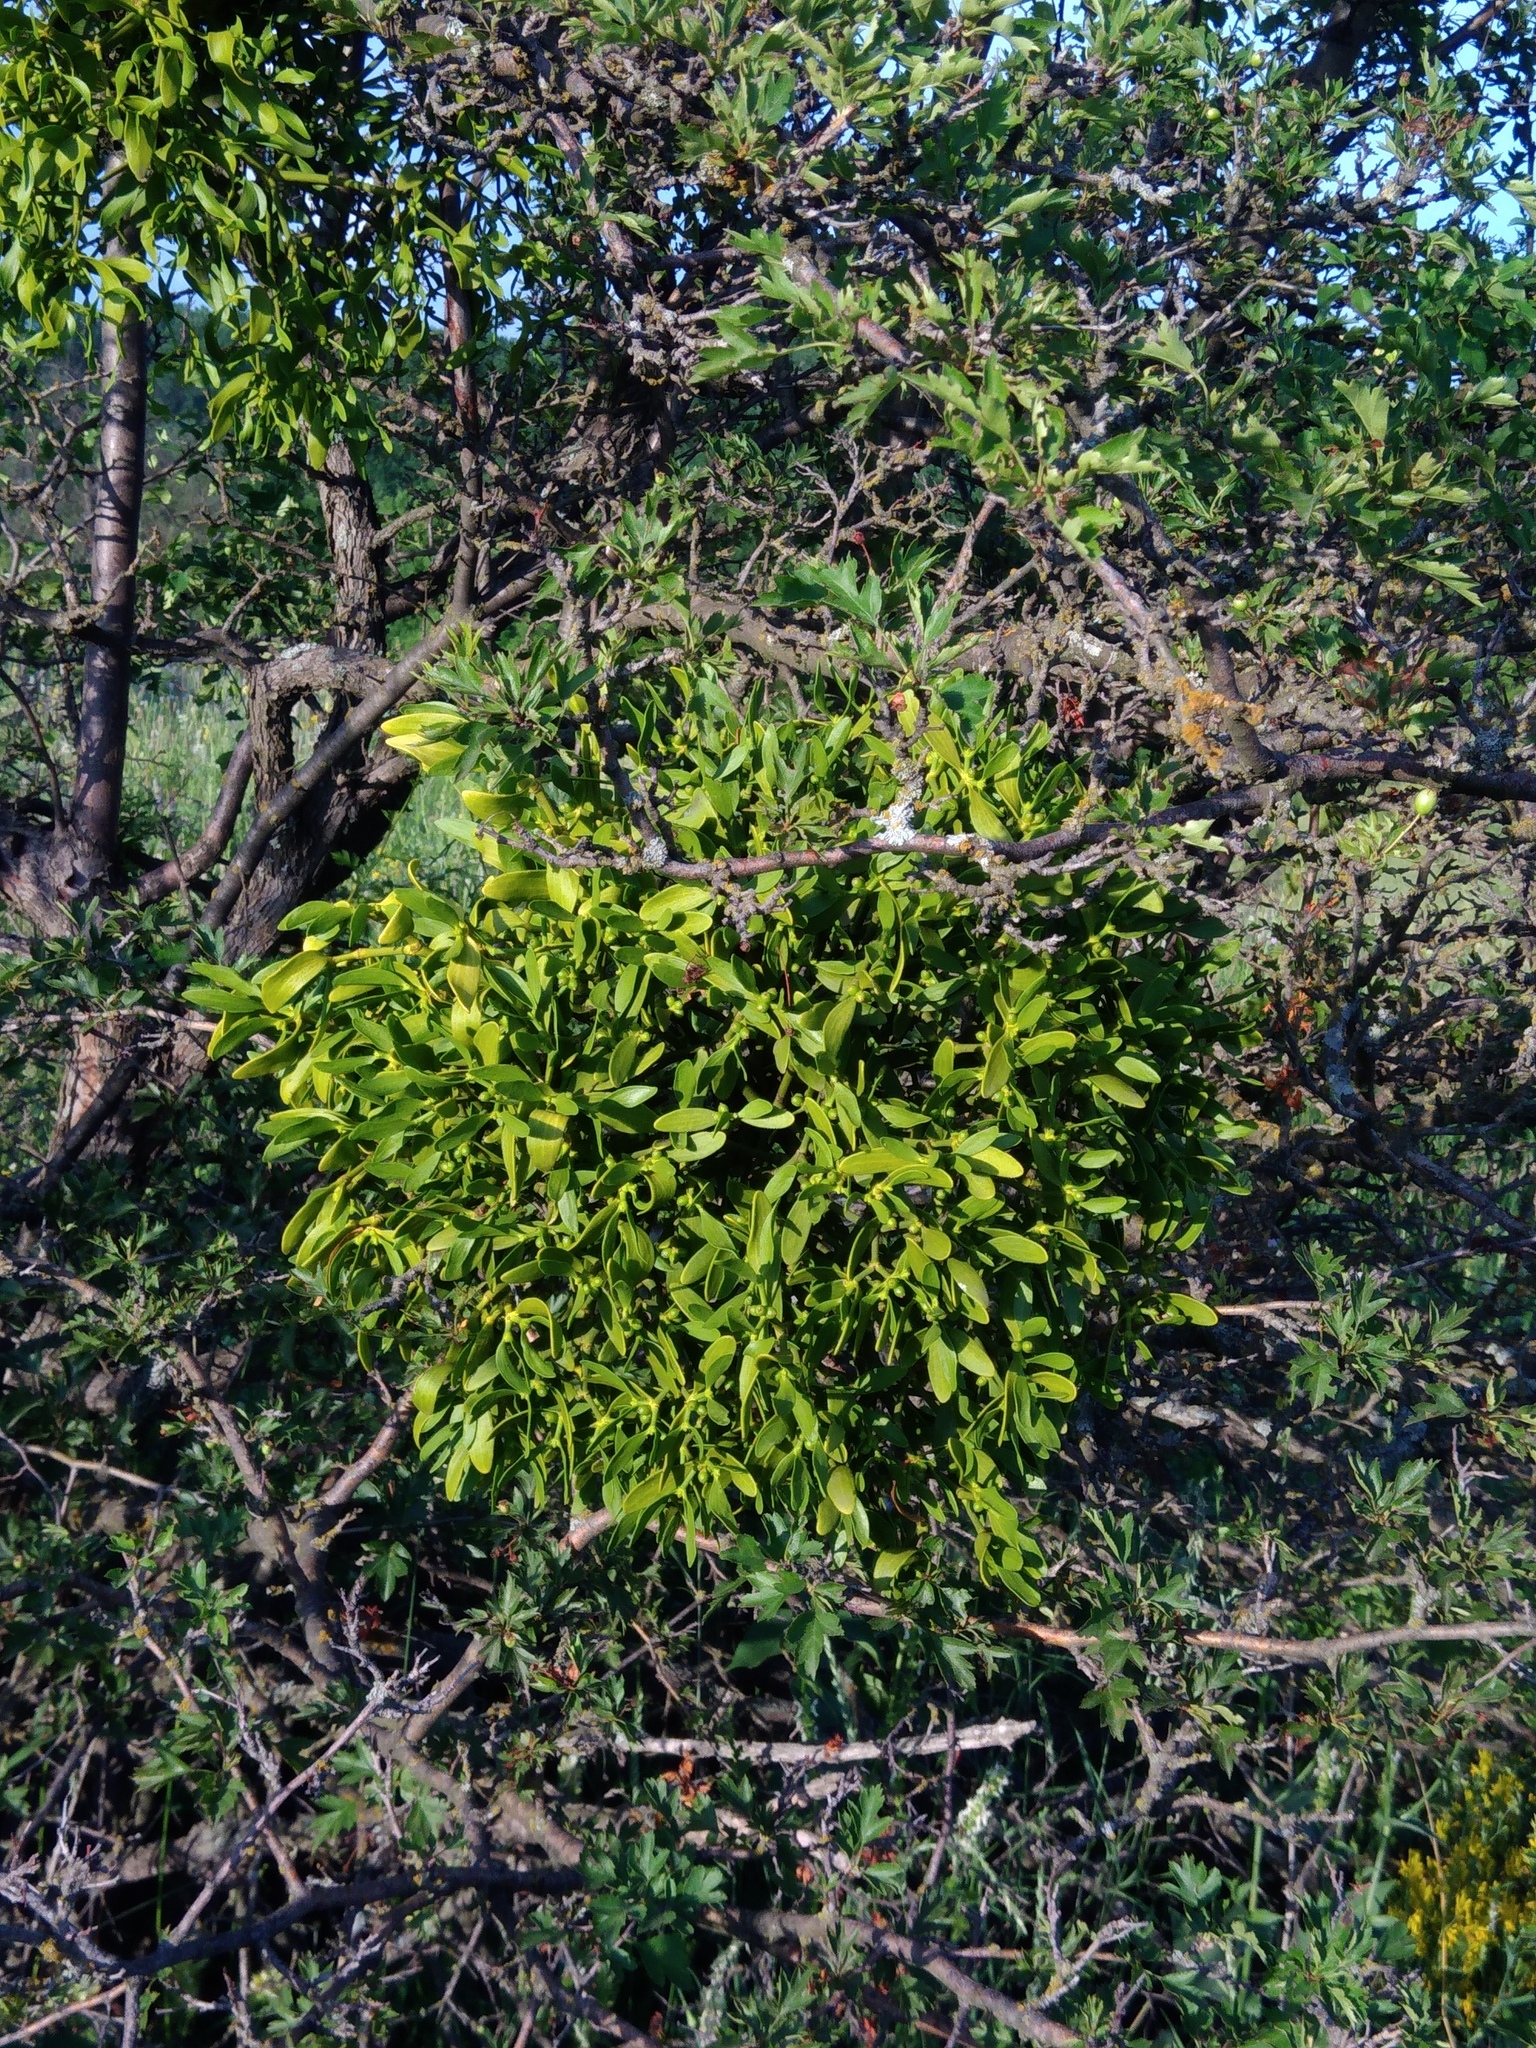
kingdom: Plantae
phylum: Tracheophyta
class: Magnoliopsida
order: Santalales
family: Viscaceae
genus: Viscum
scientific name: Viscum album
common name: Mistletoe
